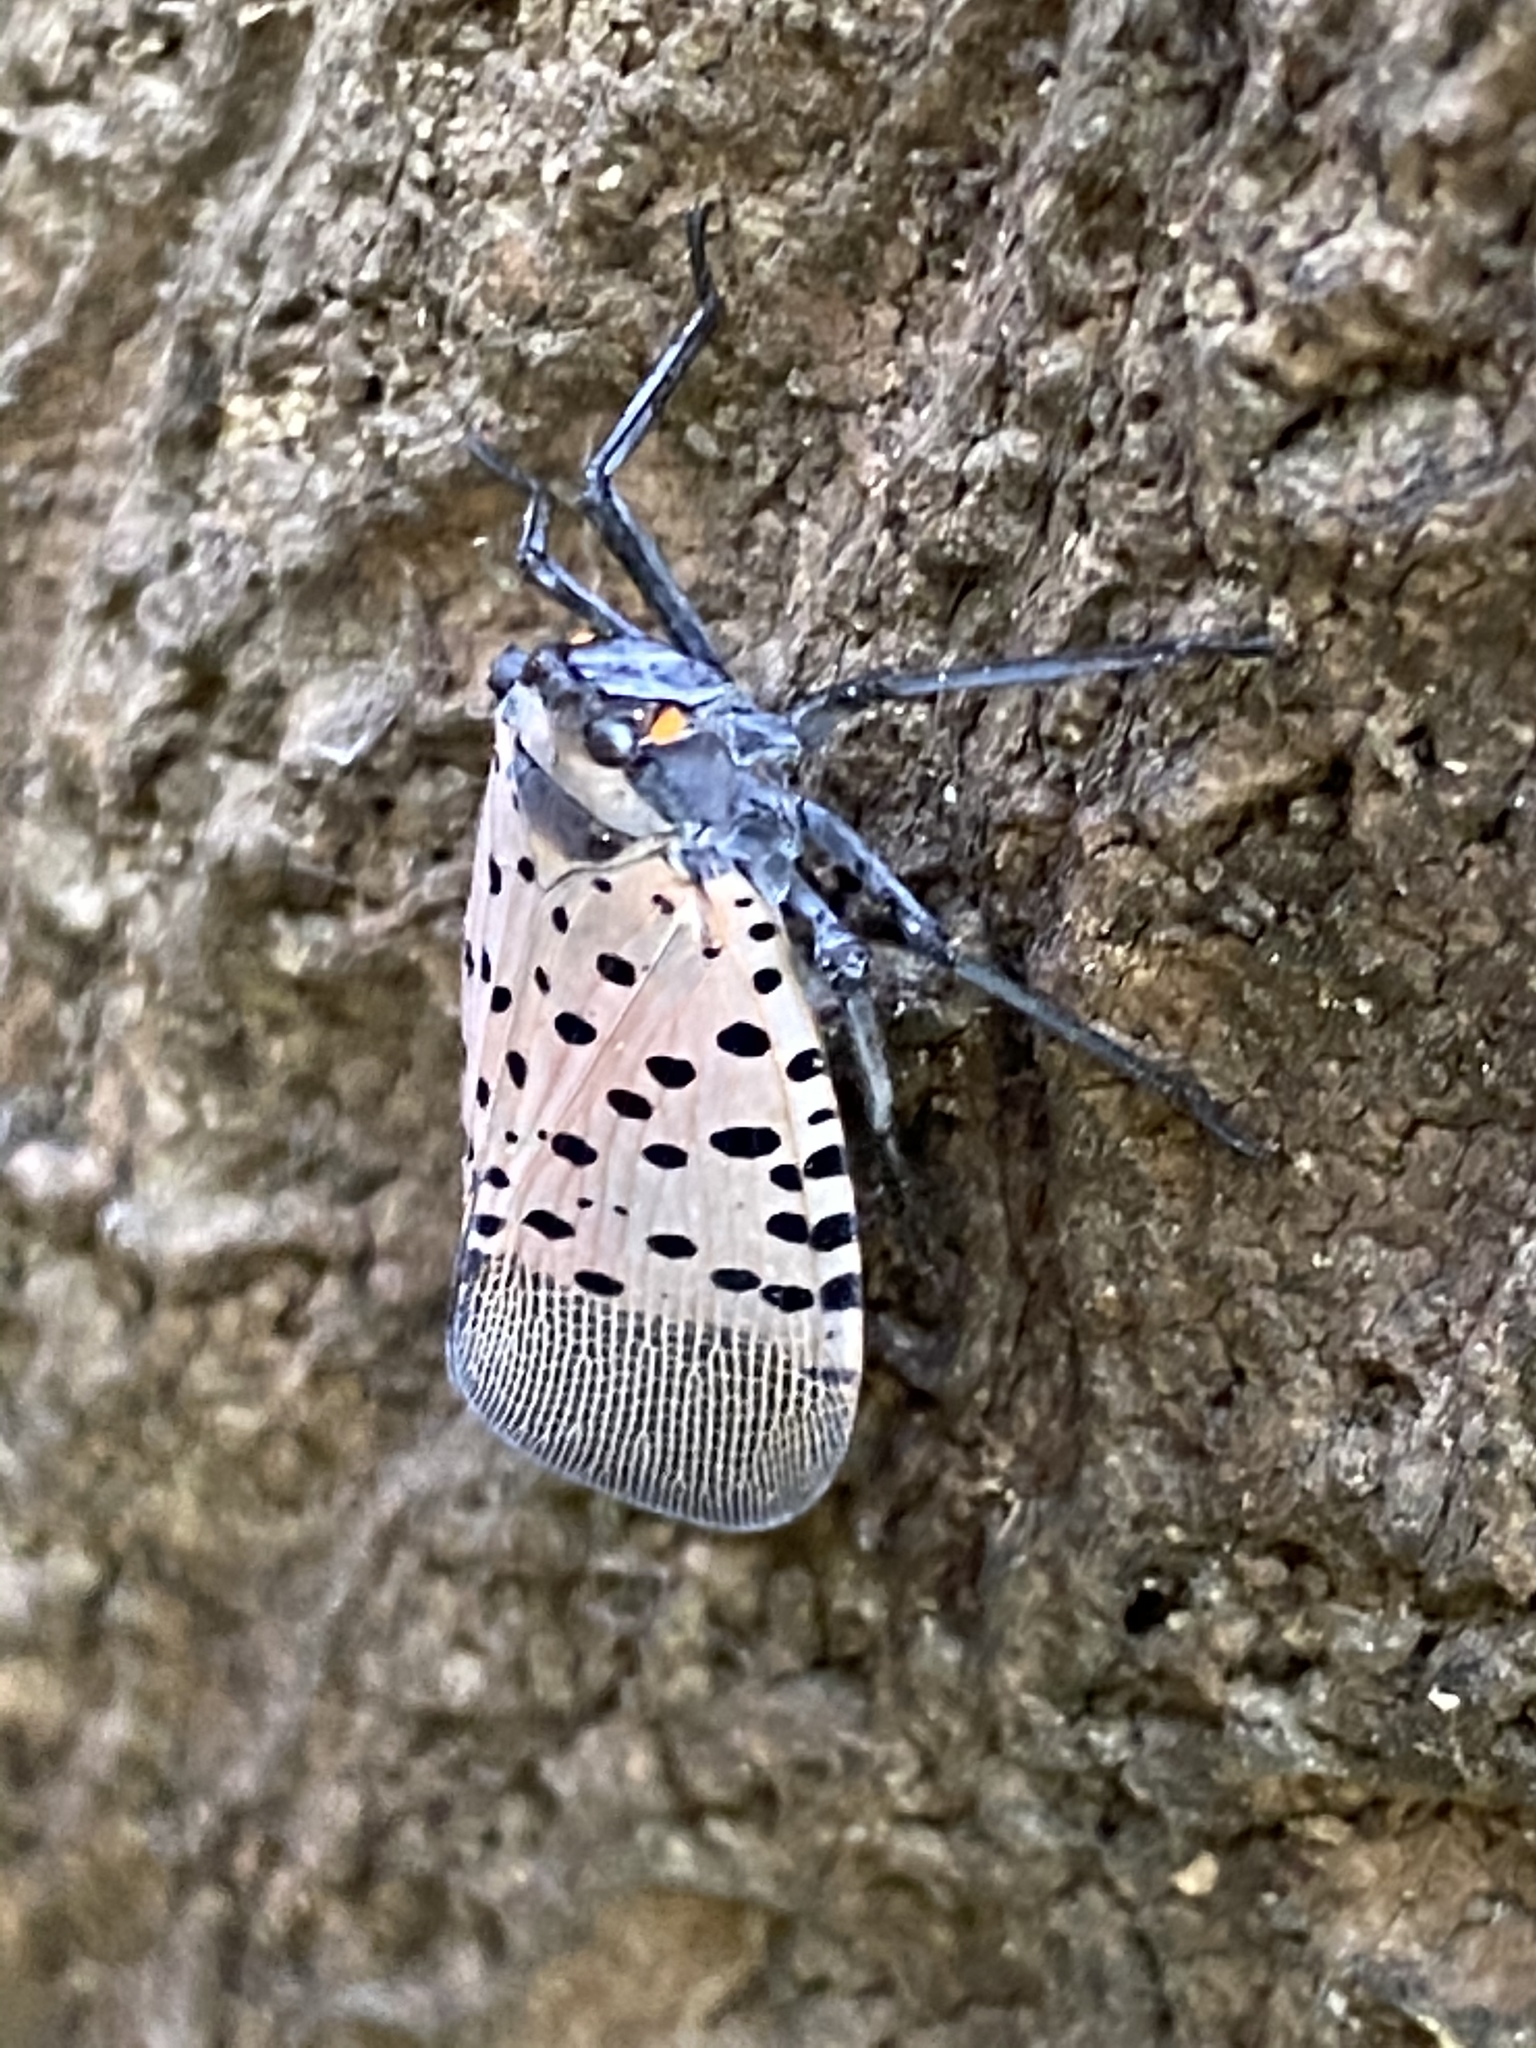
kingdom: Animalia
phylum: Arthropoda
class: Insecta
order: Hemiptera
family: Fulgoridae
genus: Lycorma
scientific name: Lycorma delicatula
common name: Spotted lanternfly
